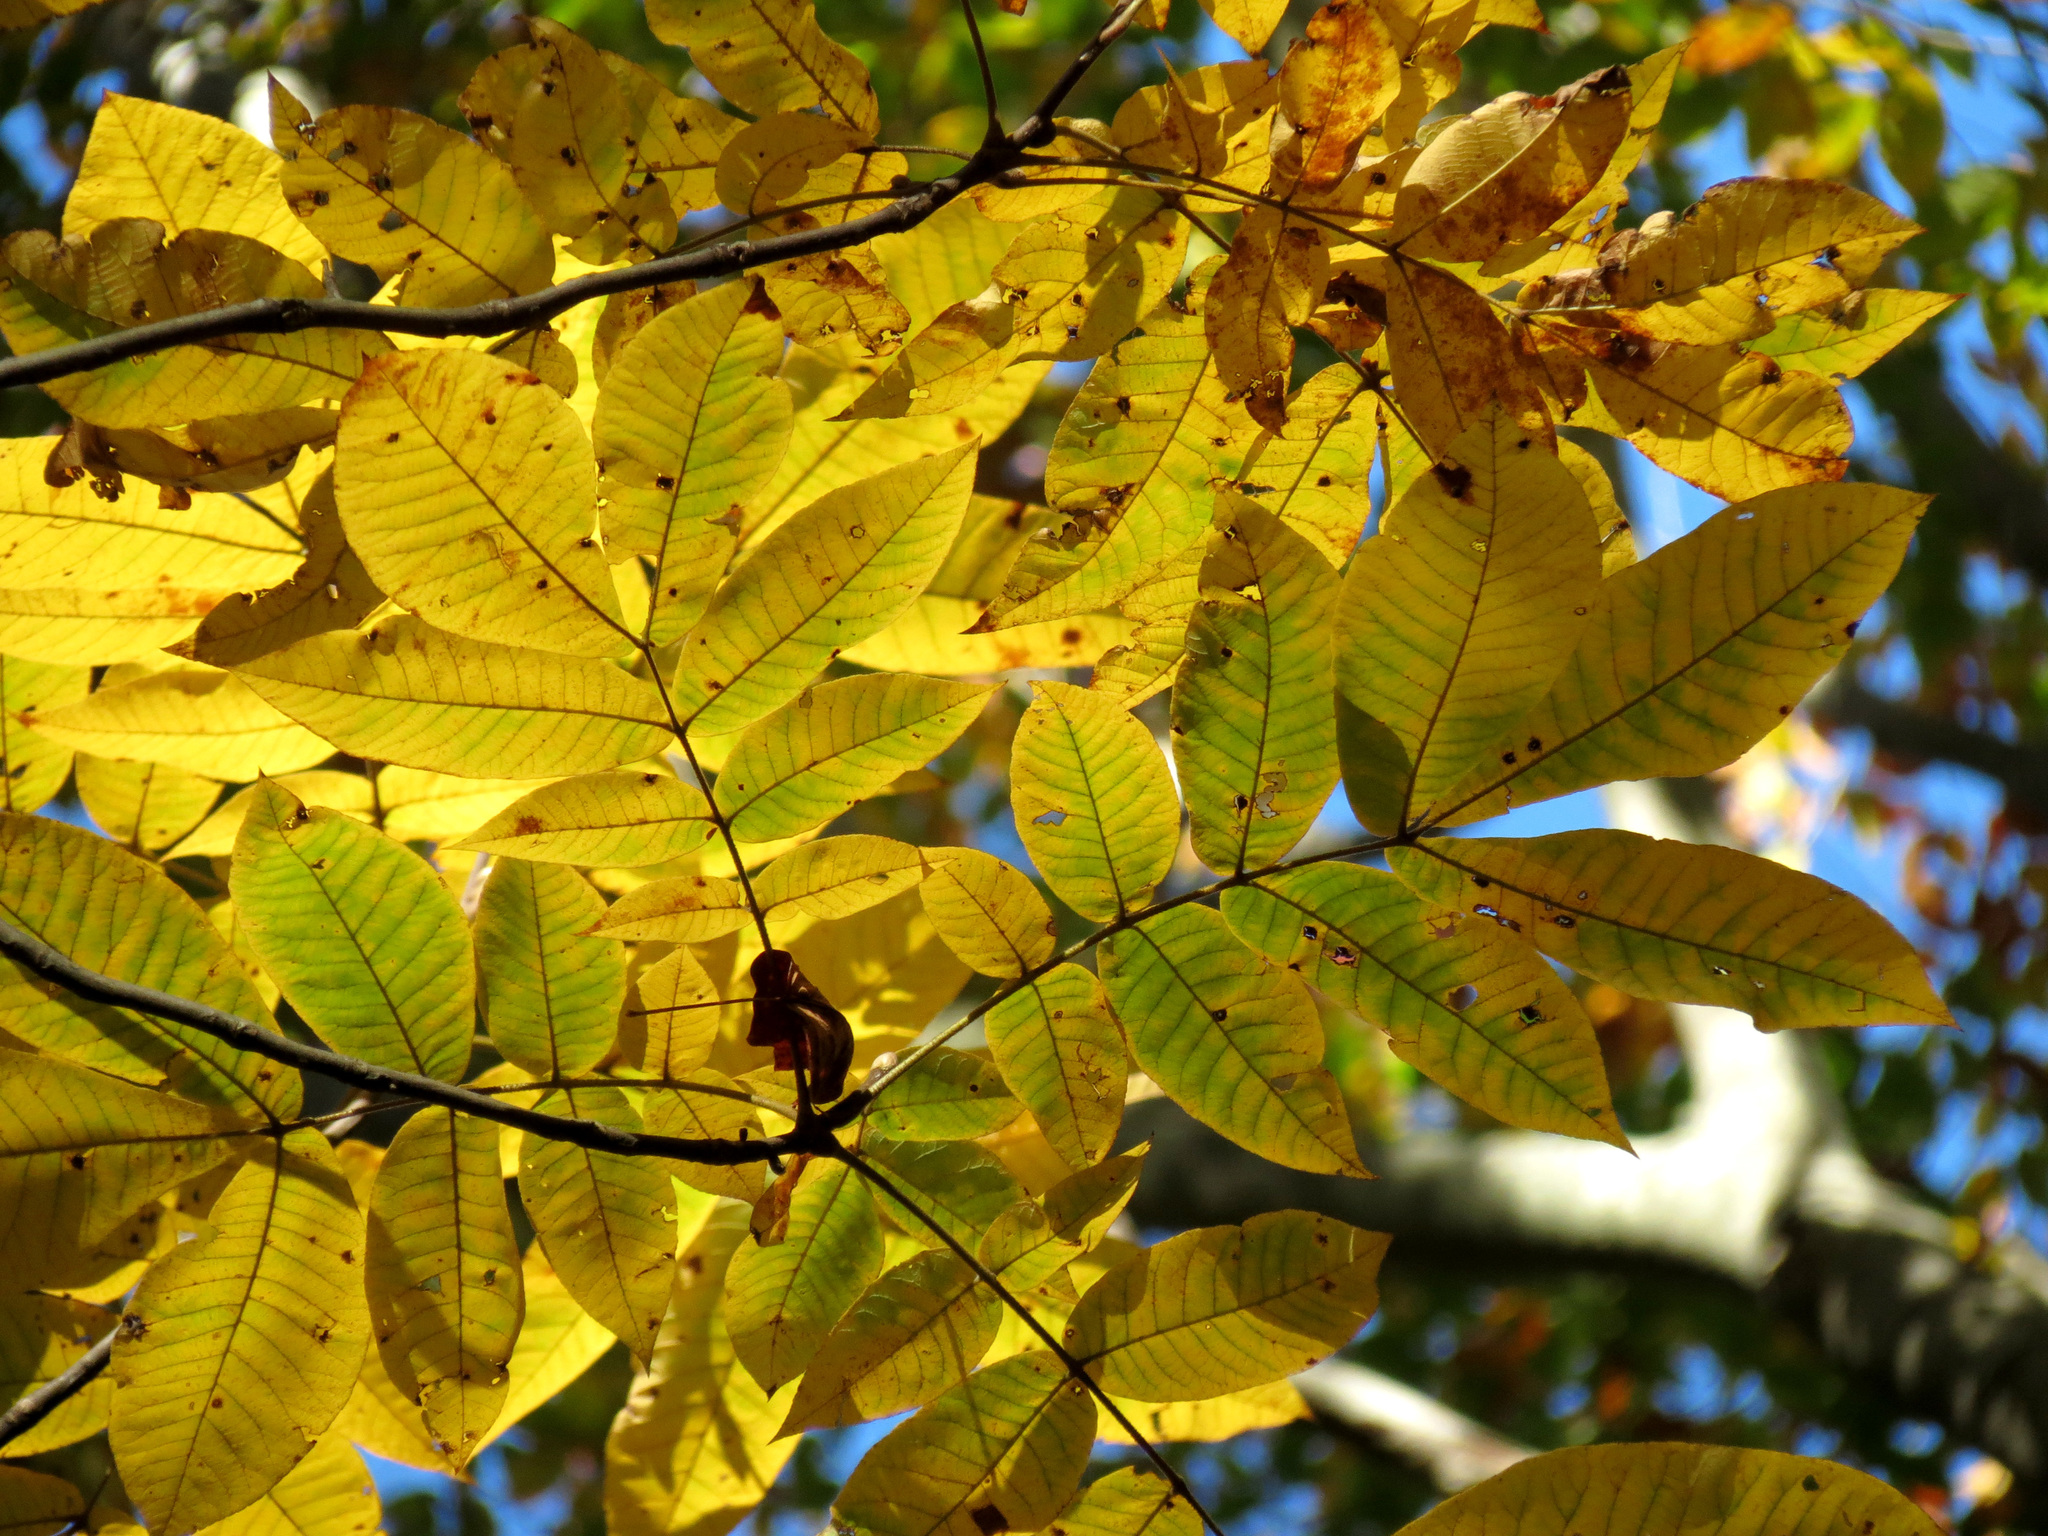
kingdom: Plantae
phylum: Tracheophyta
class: Magnoliopsida
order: Fagales
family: Juglandaceae
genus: Carya
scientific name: Carya alba
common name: Mockernut hickory
